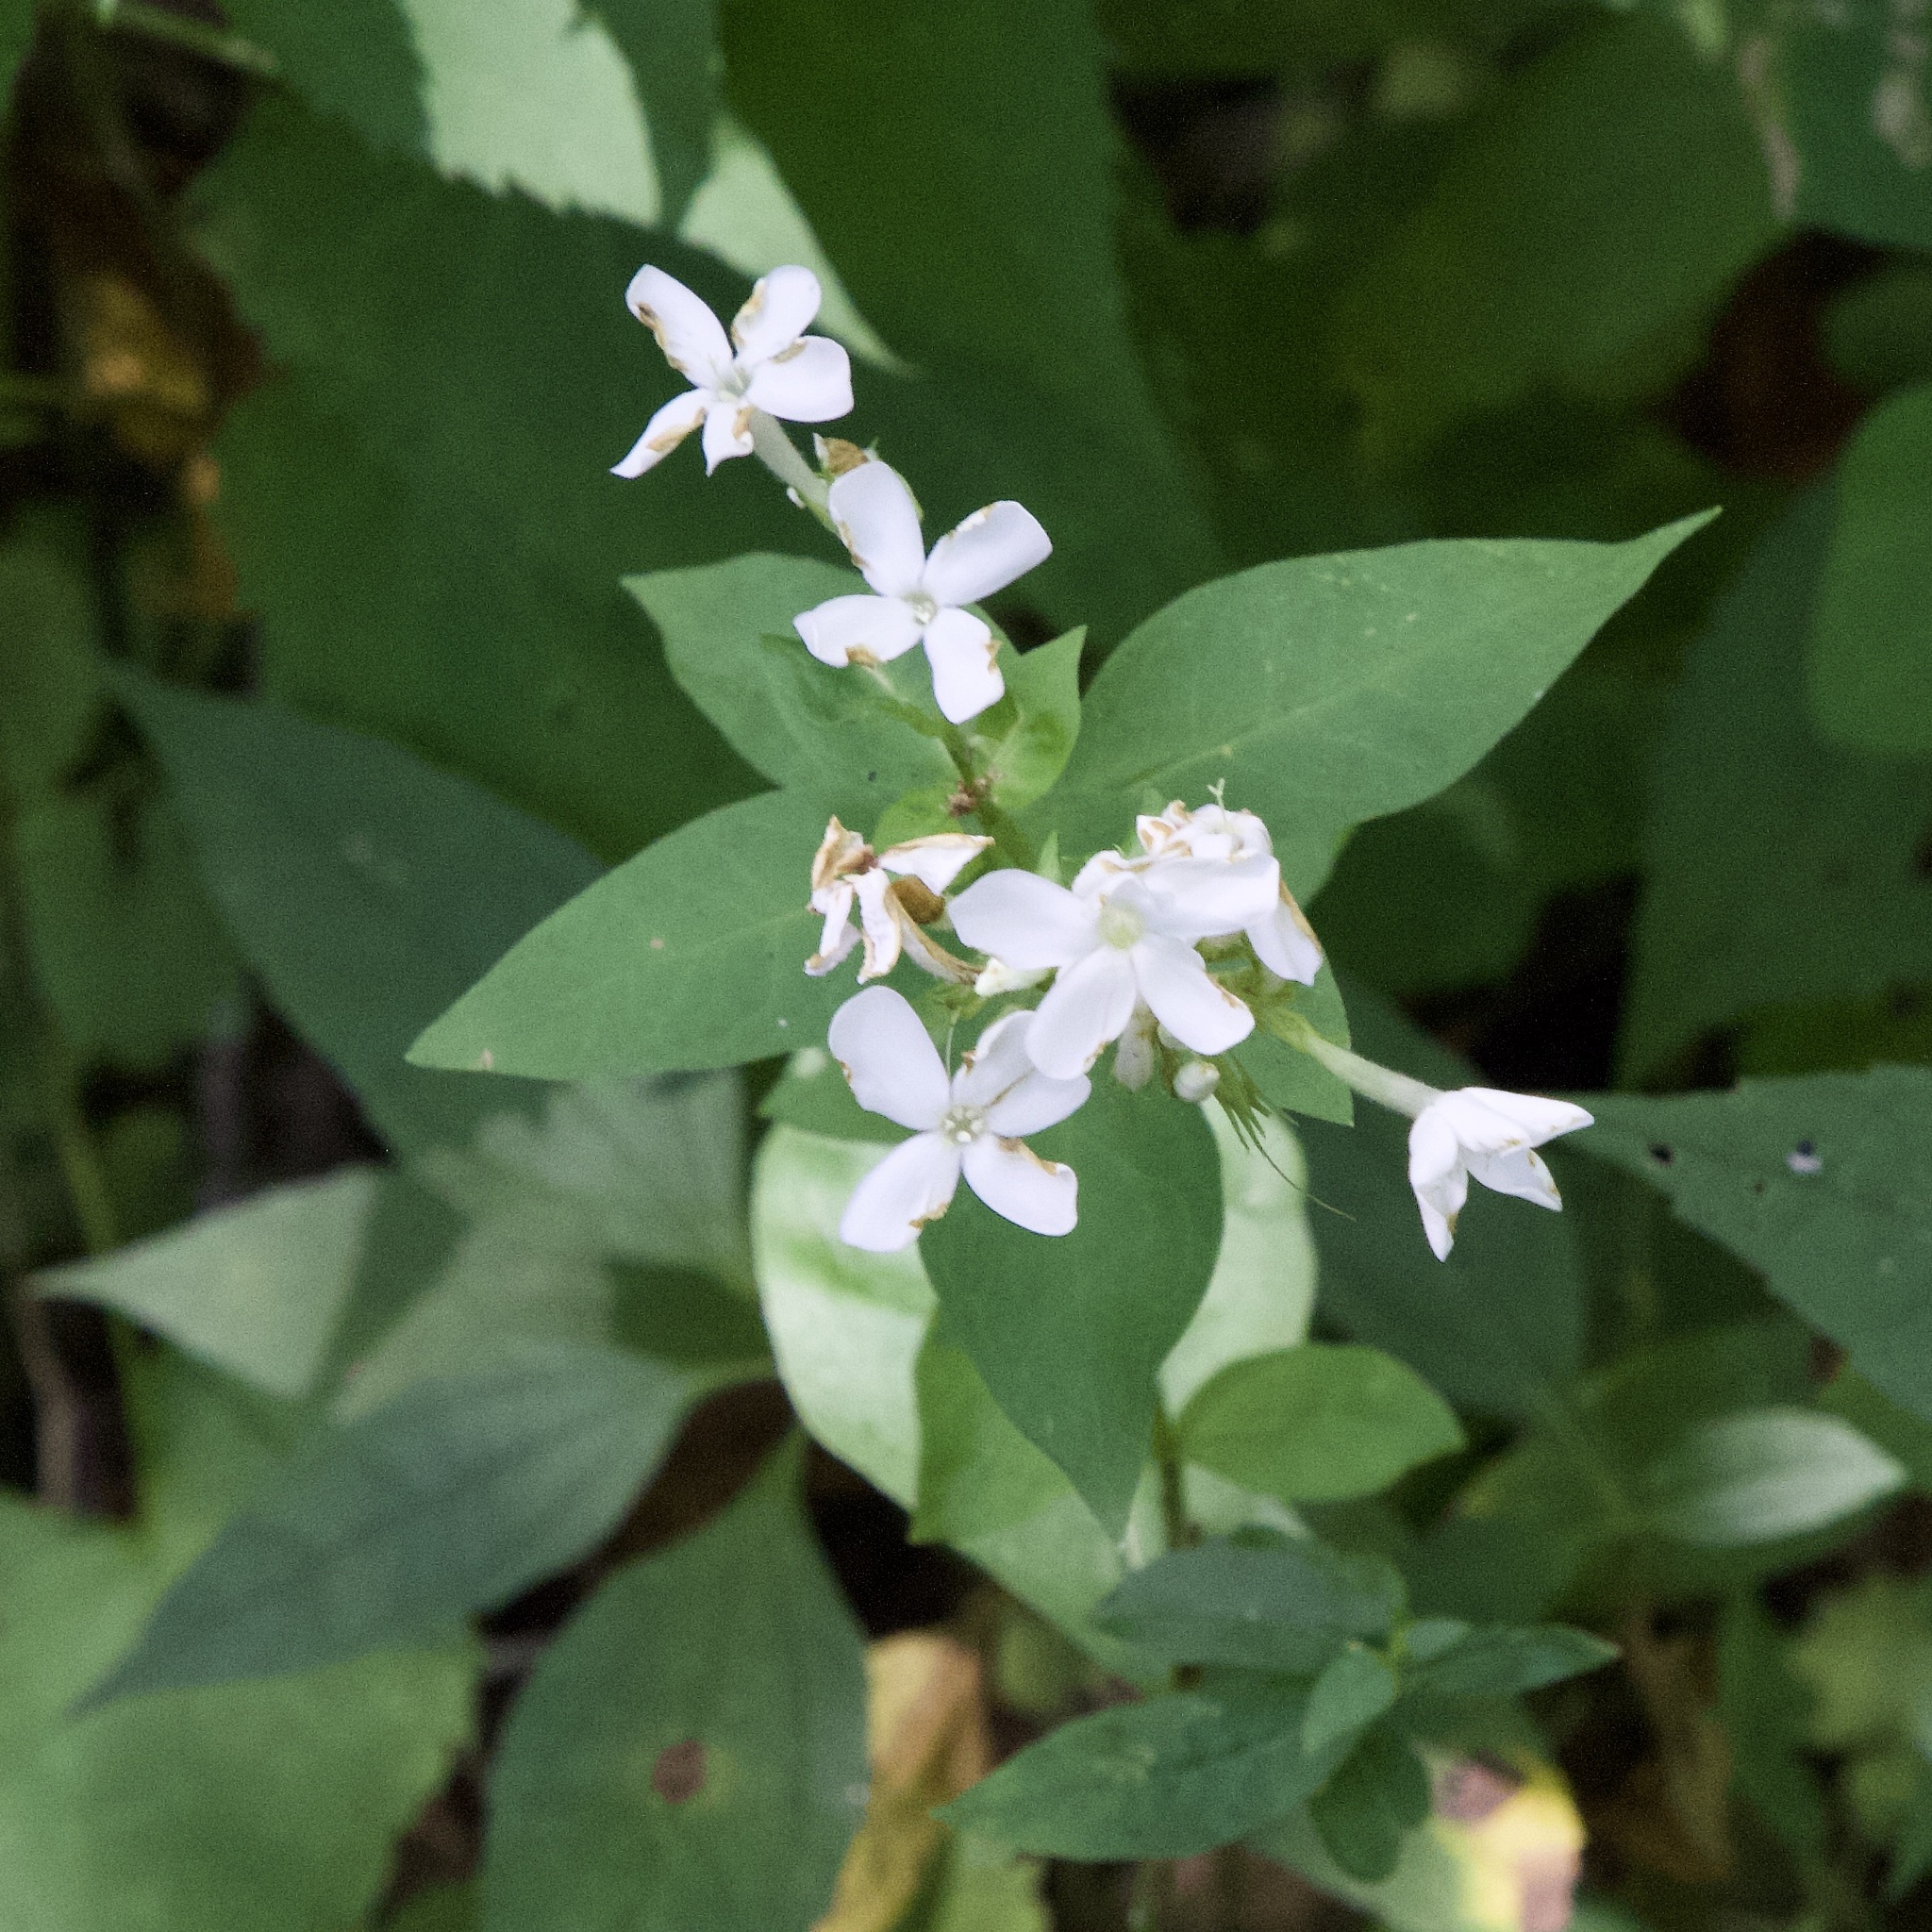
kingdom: Plantae
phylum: Tracheophyta
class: Magnoliopsida
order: Ericales
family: Polemoniaceae
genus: Phlox
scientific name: Phlox paniculata
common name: Fall phlox
